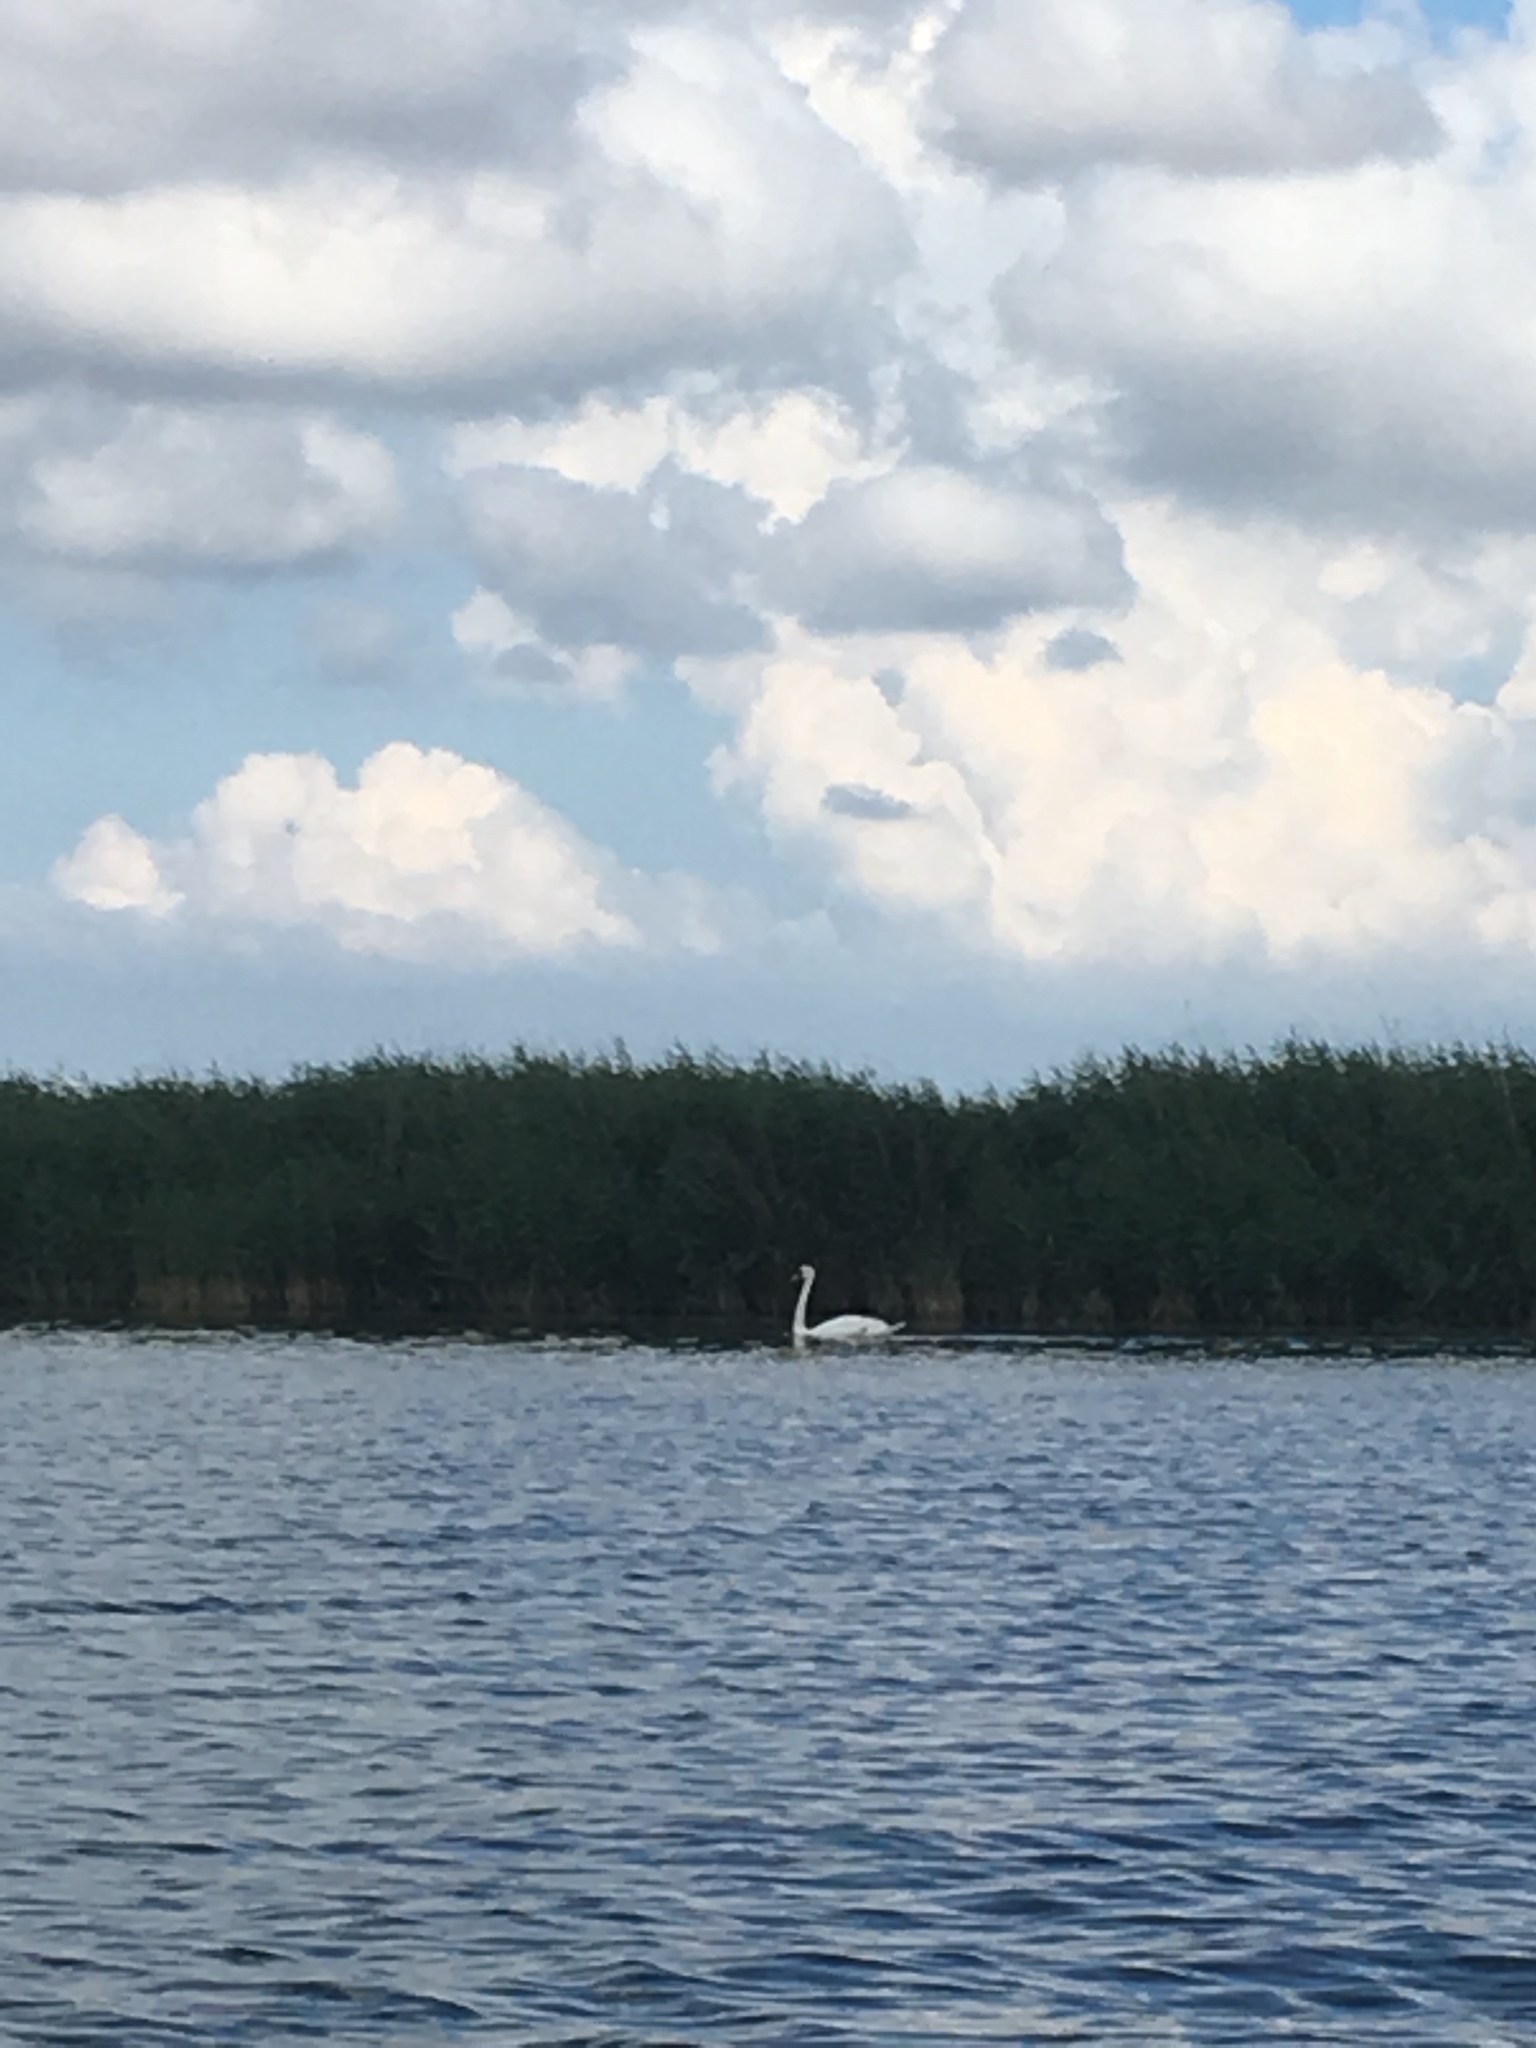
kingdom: Animalia
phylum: Chordata
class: Aves
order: Anseriformes
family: Anatidae
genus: Cygnus
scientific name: Cygnus olor
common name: Mute swan
